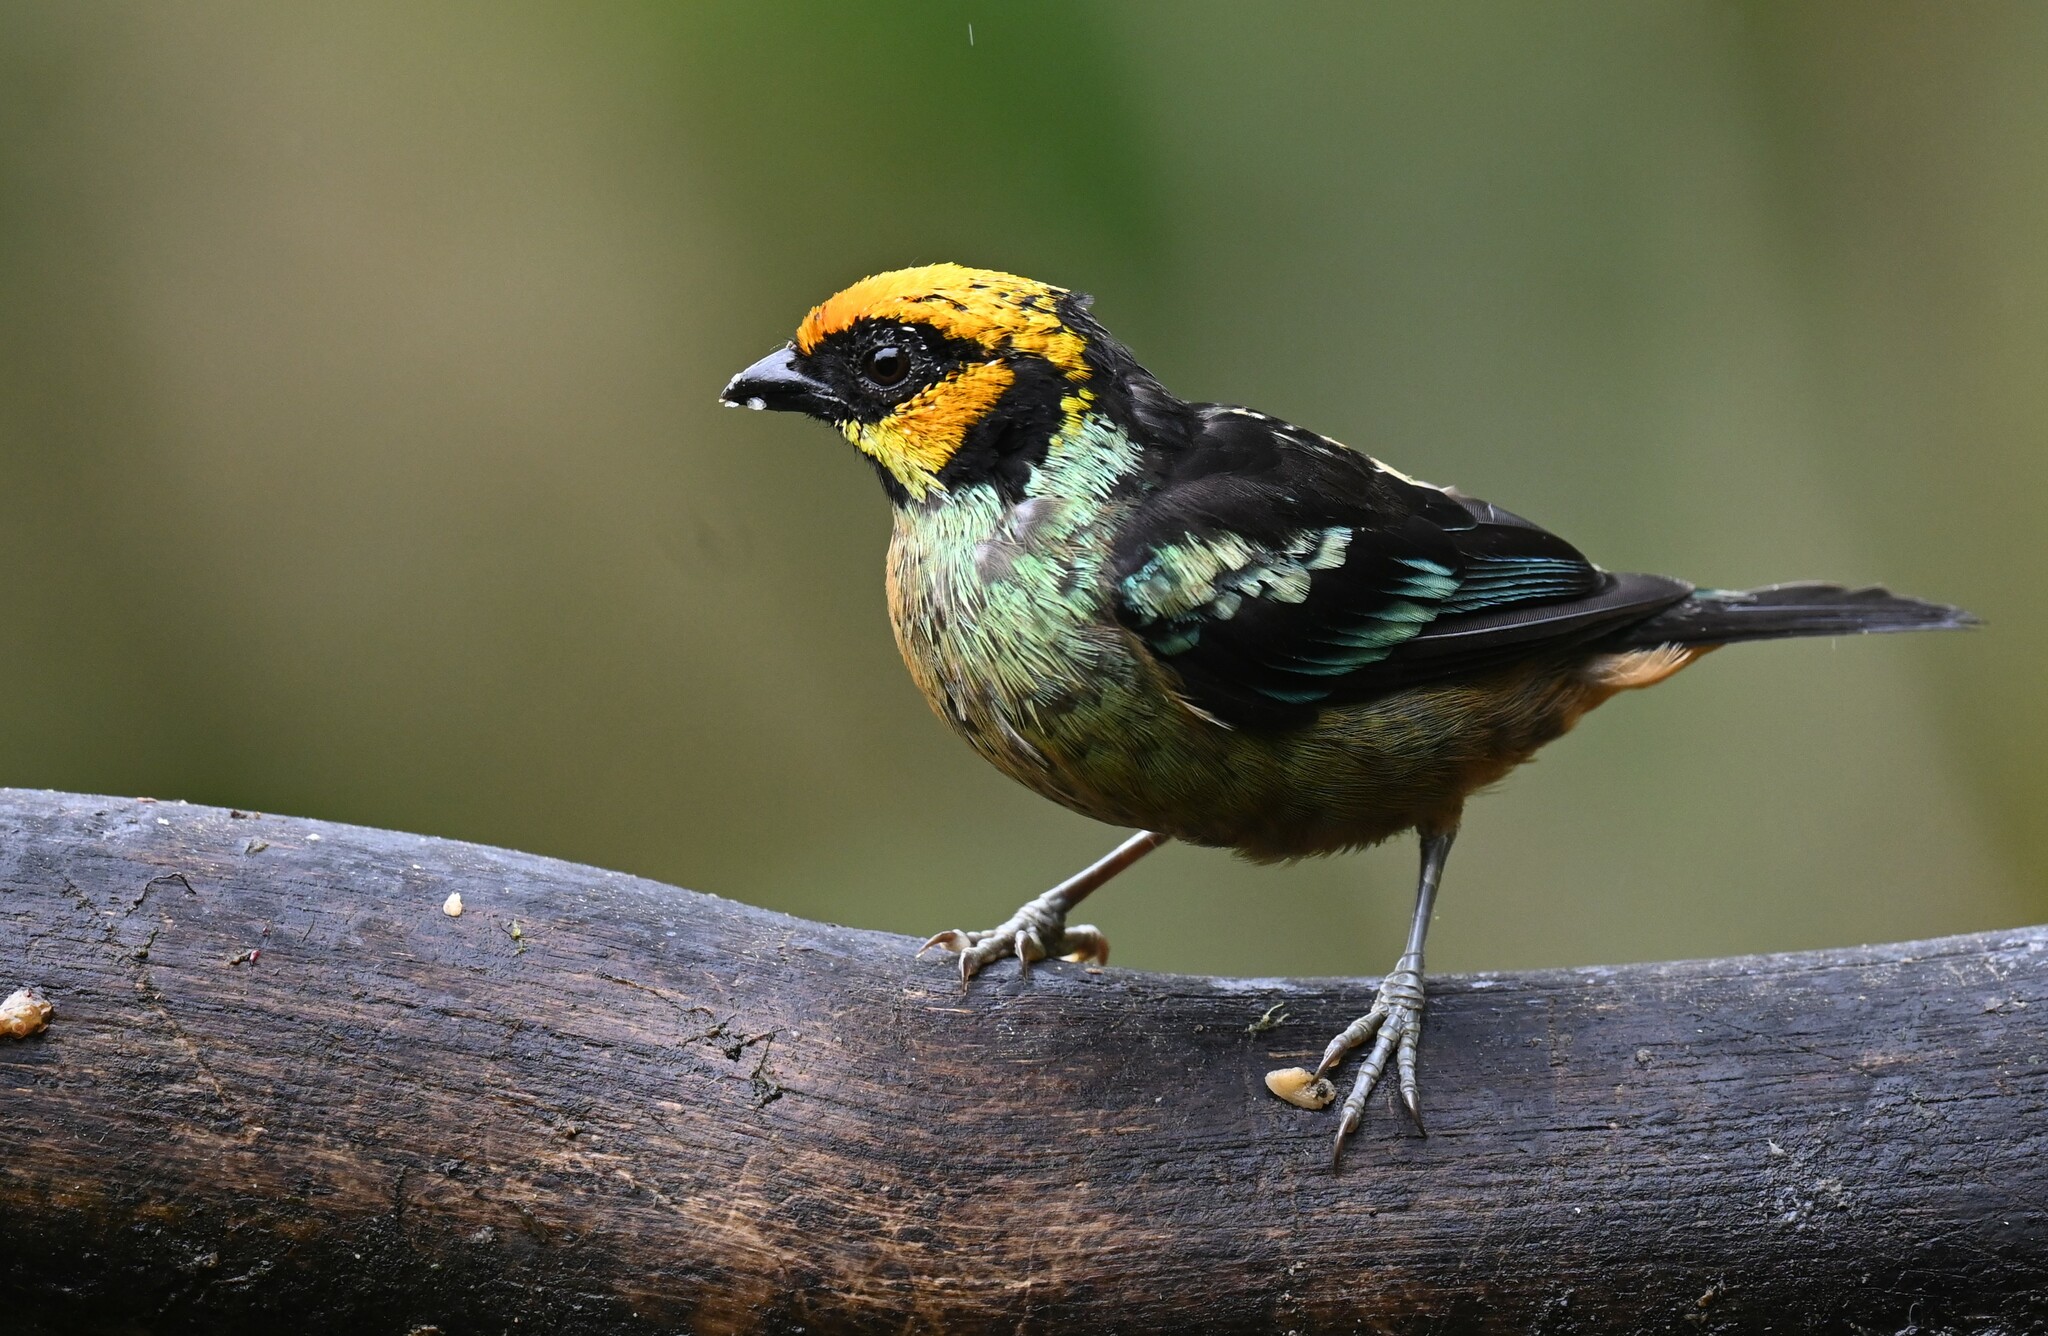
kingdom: Animalia
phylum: Chordata
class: Aves
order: Passeriformes
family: Thraupidae
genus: Tangara
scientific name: Tangara parzudakii
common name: Flame-faced tanager
